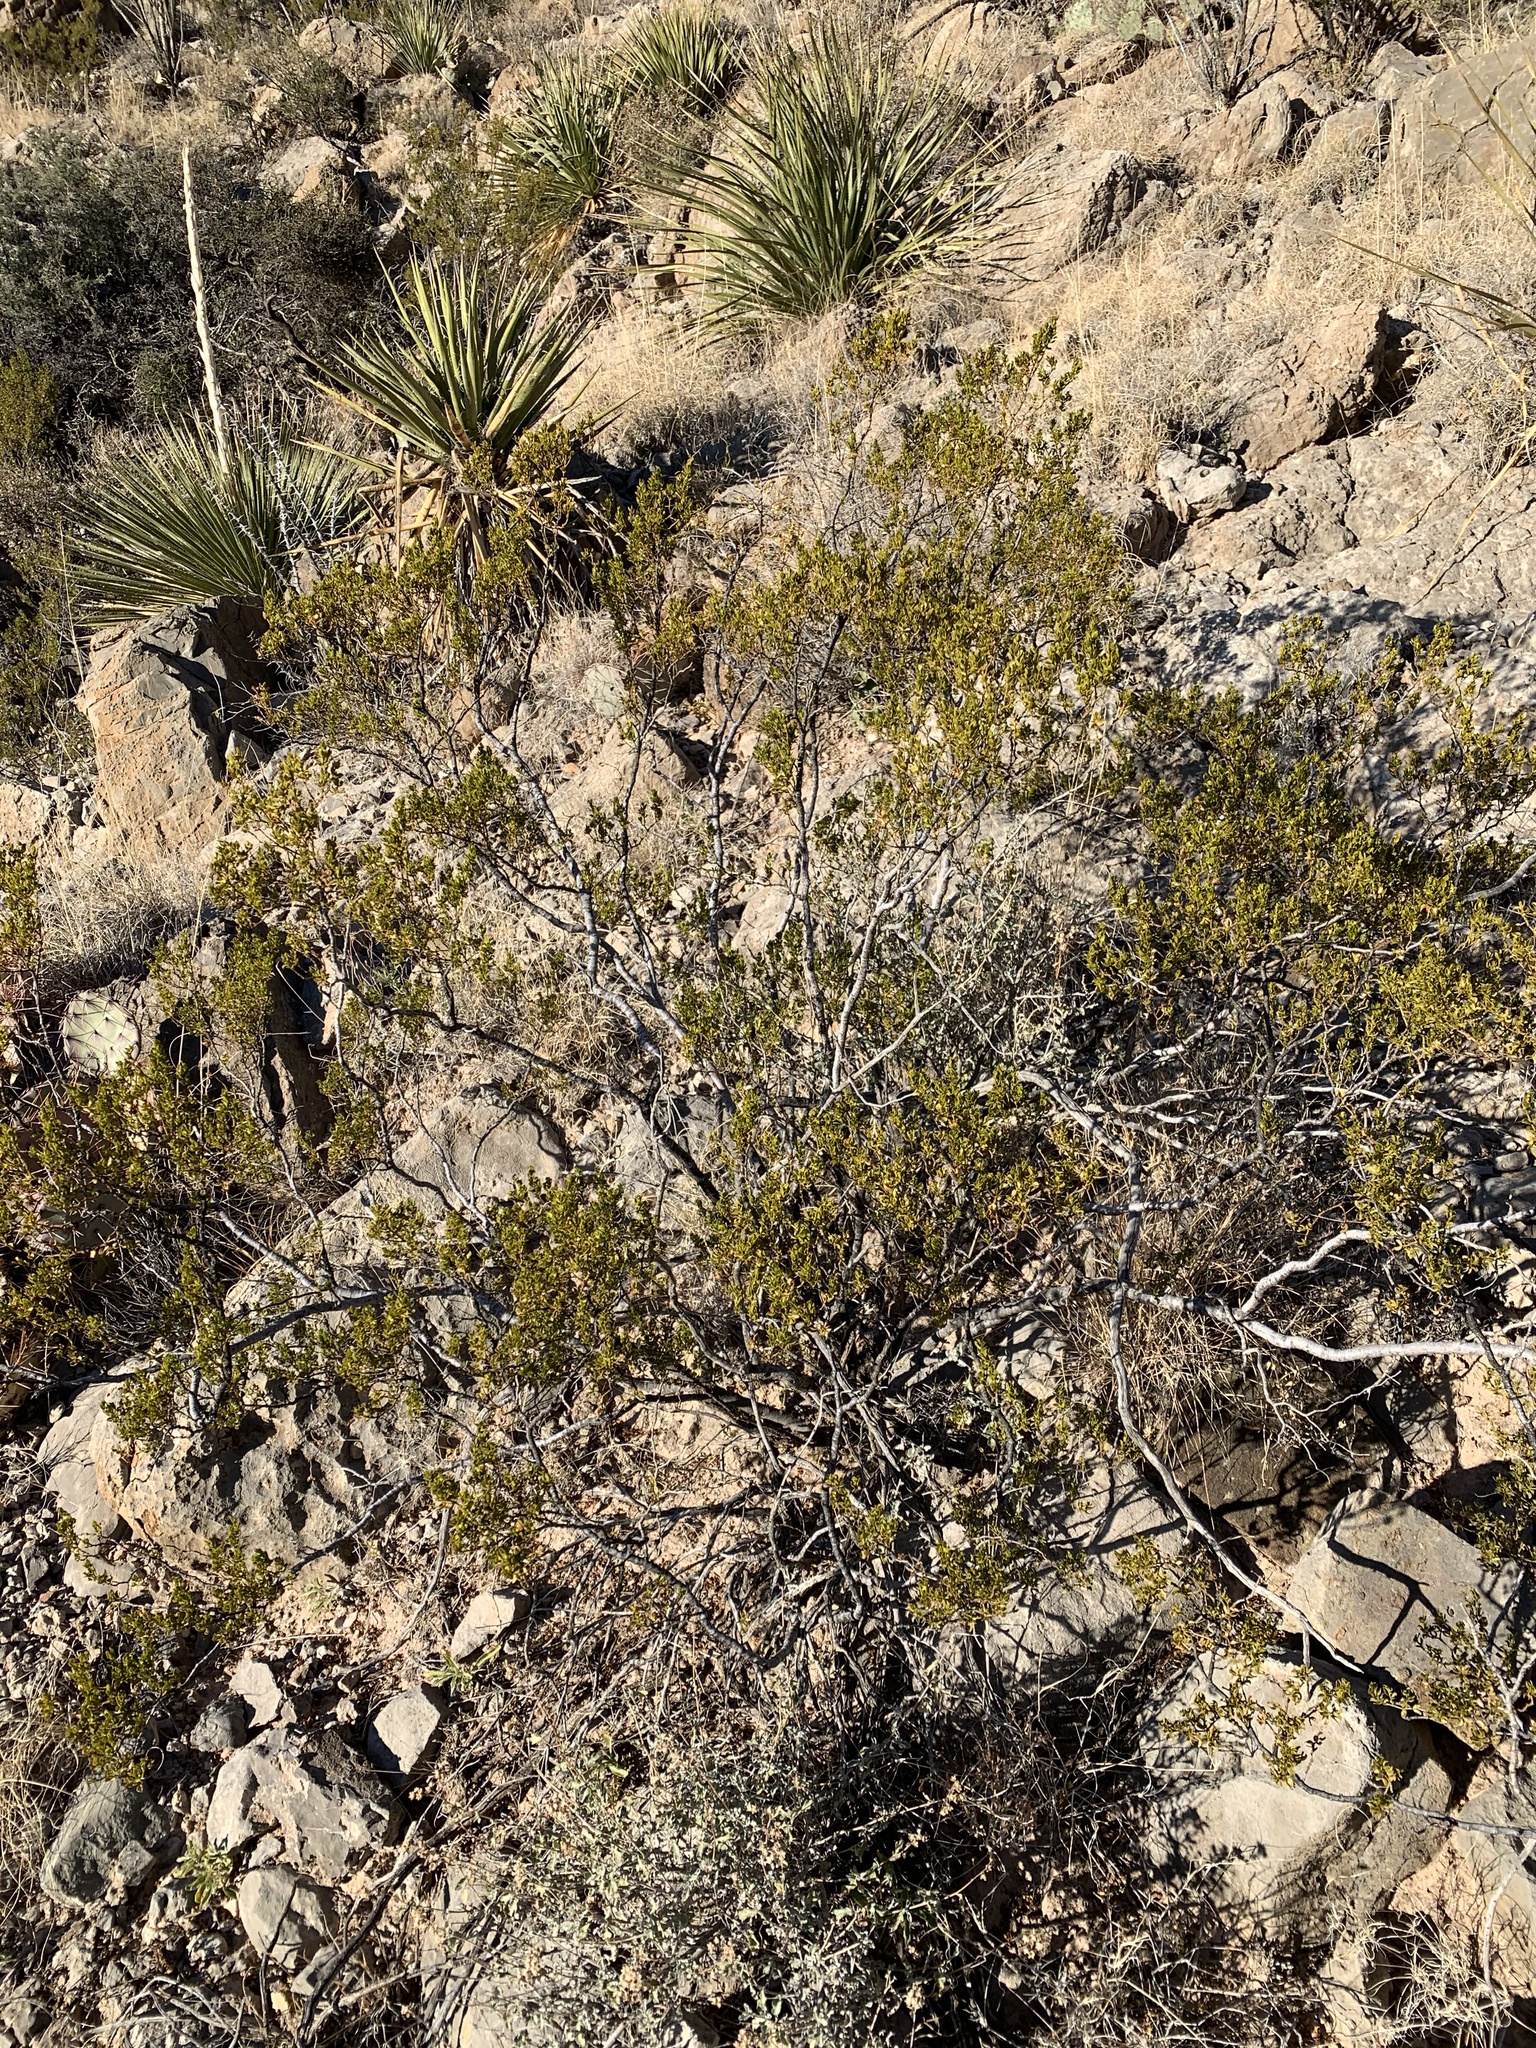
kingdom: Plantae
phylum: Tracheophyta
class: Magnoliopsida
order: Zygophyllales
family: Zygophyllaceae
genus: Larrea
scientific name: Larrea tridentata
